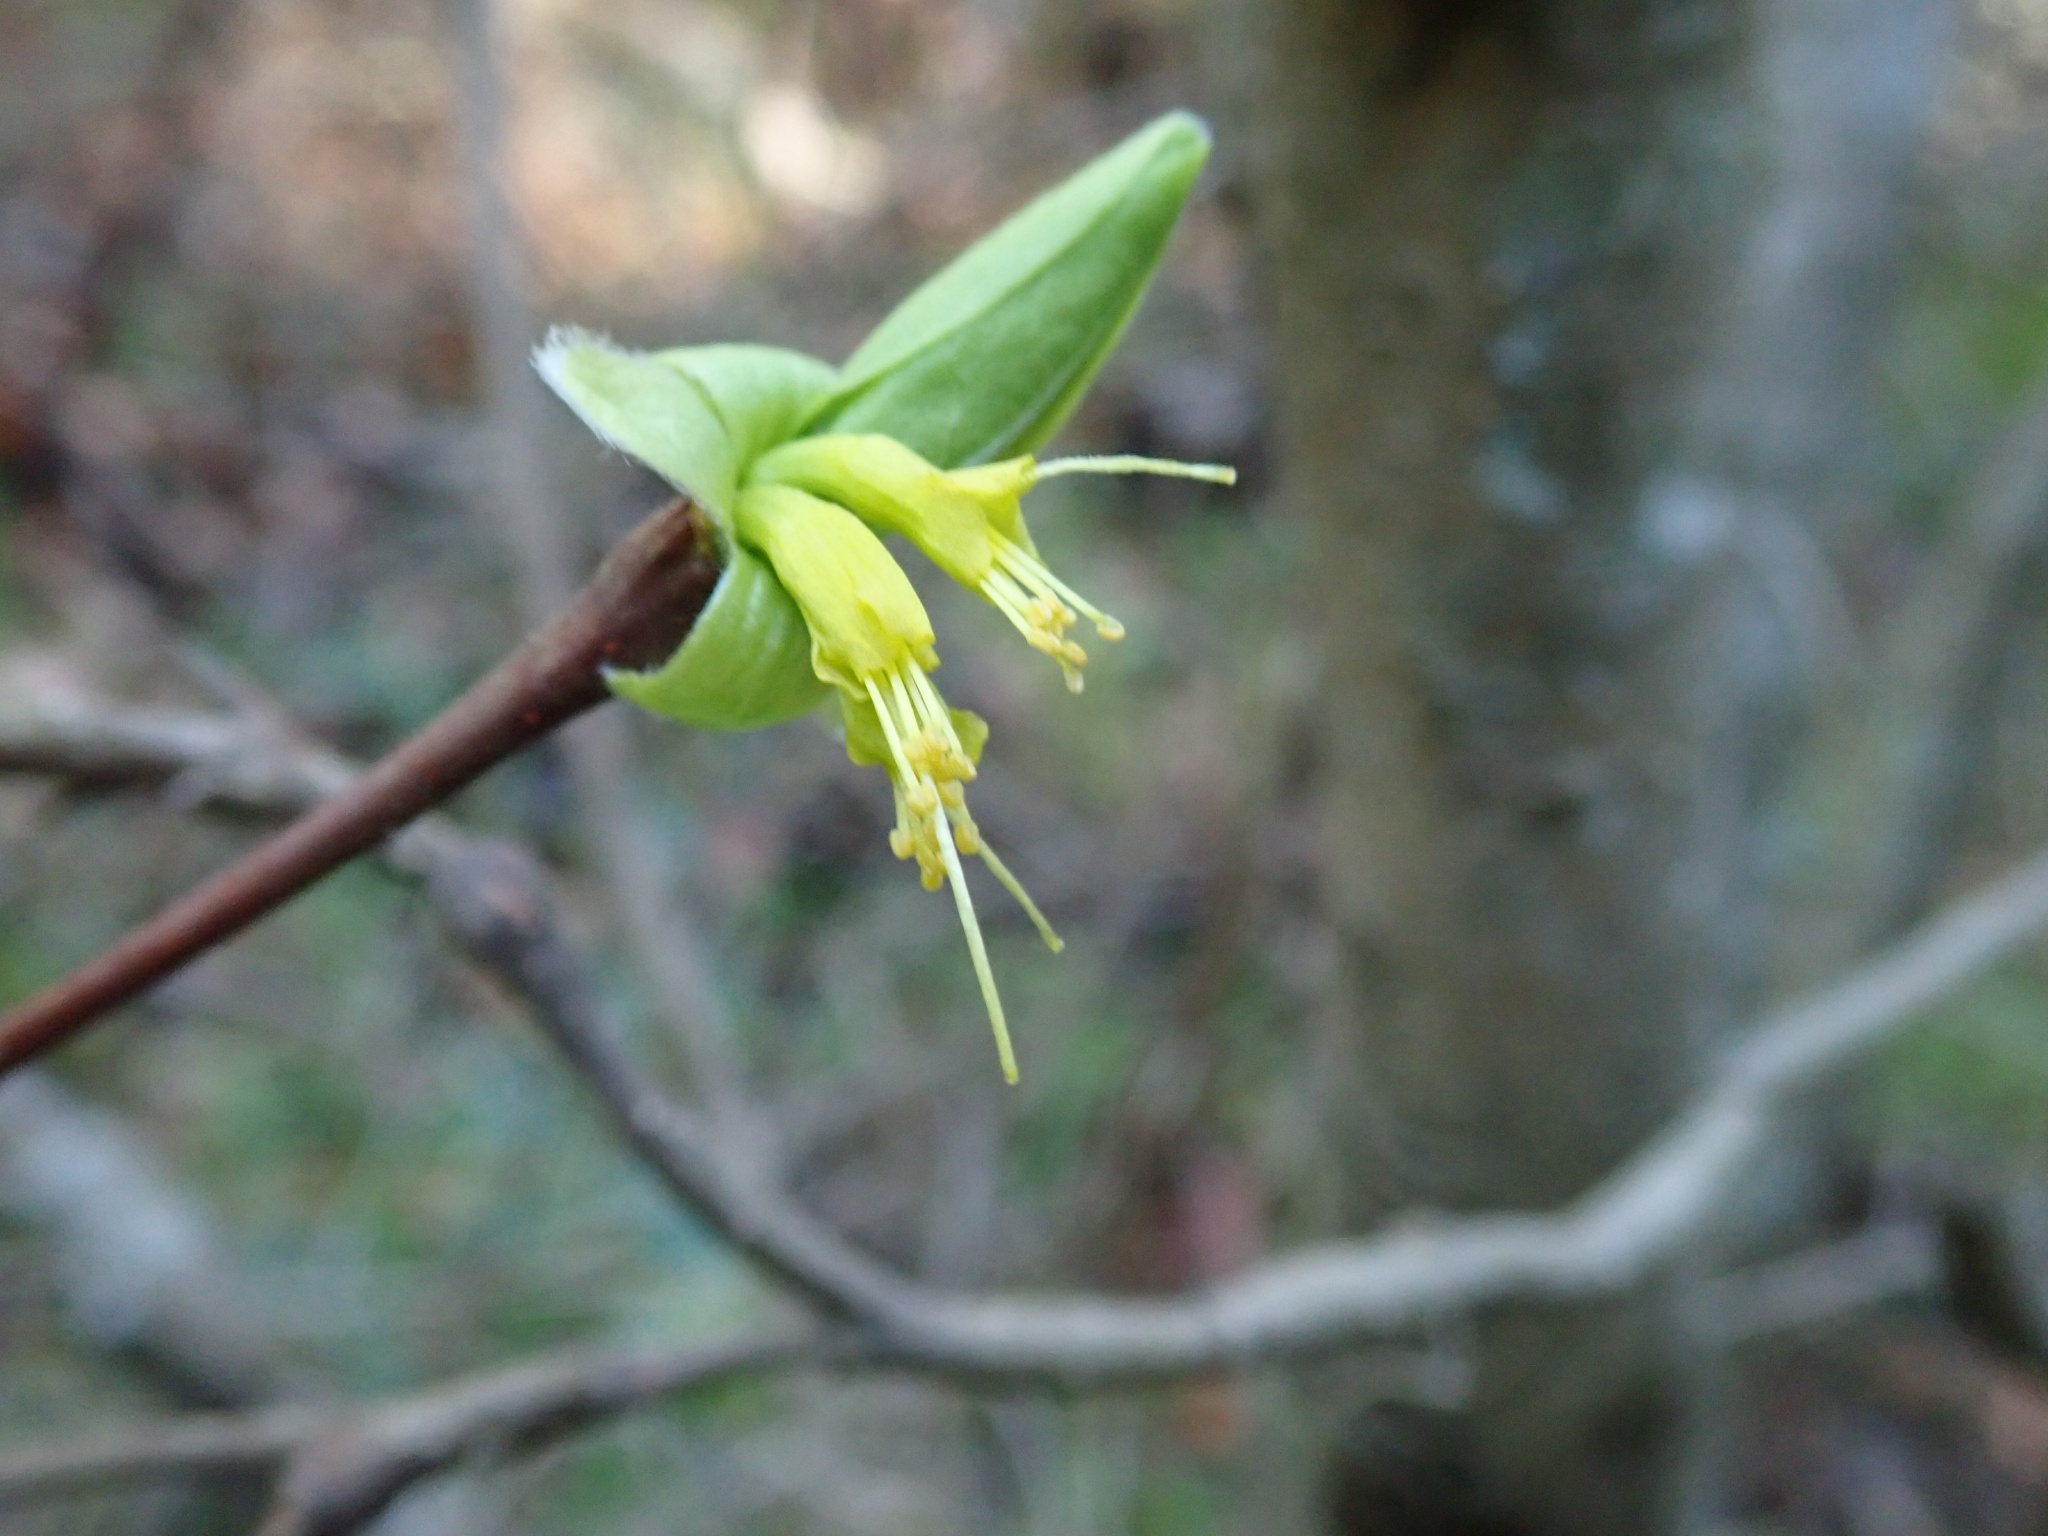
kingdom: Plantae
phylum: Tracheophyta
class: Magnoliopsida
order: Malvales
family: Thymelaeaceae
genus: Dirca
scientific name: Dirca occidentalis
